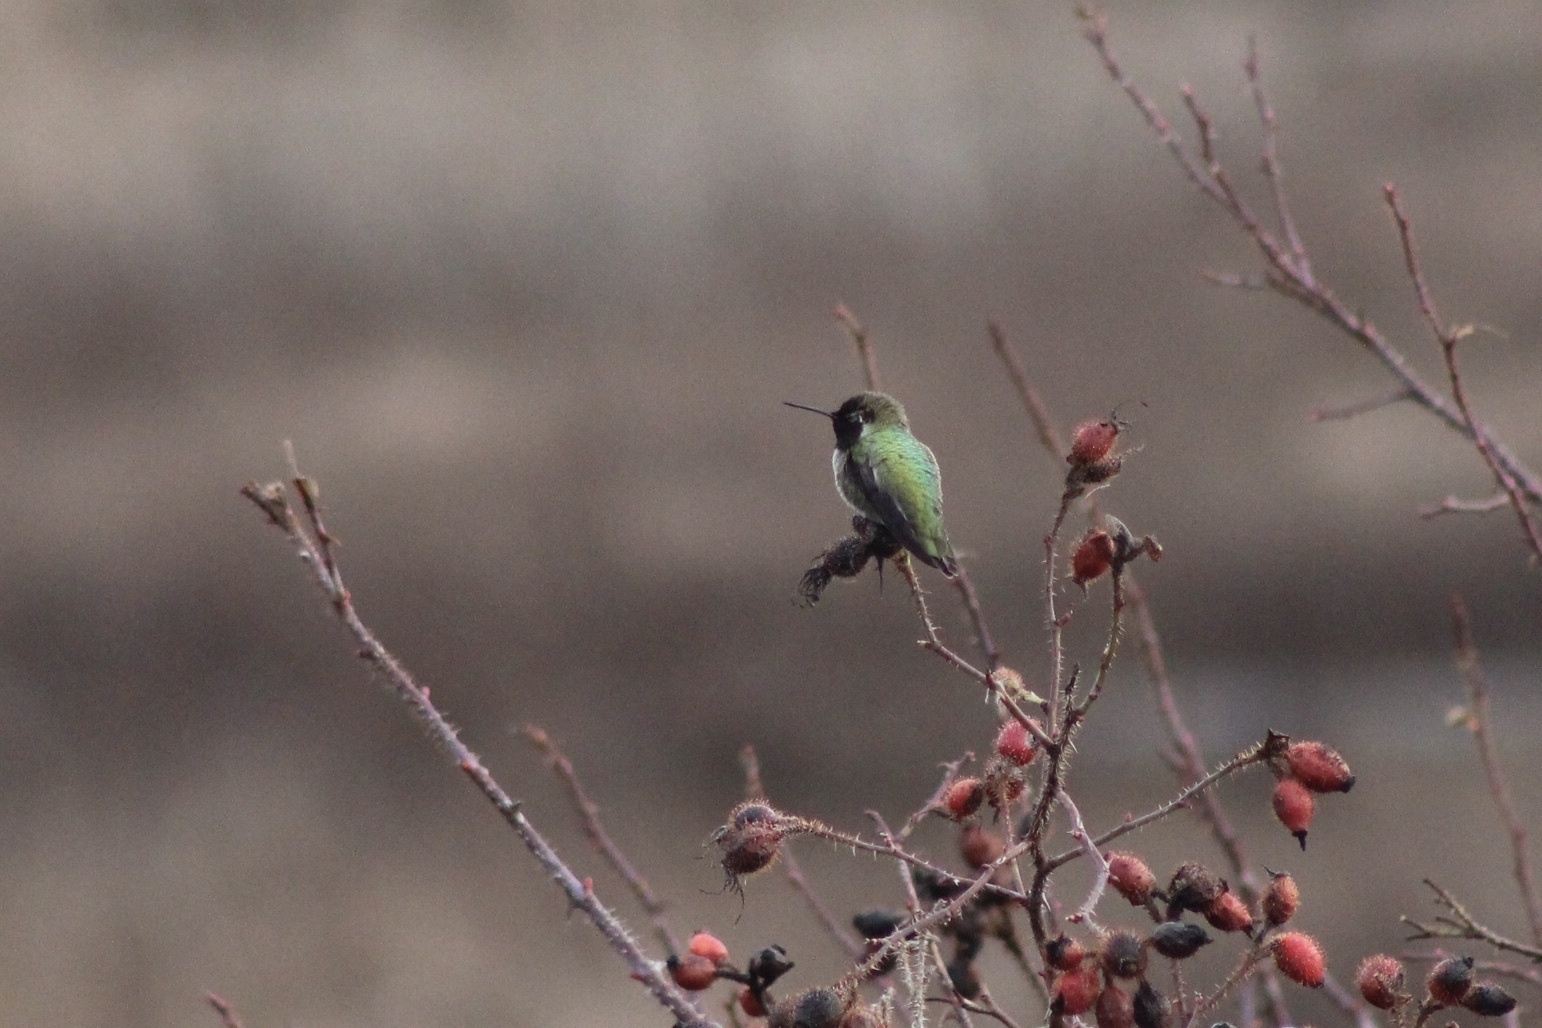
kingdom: Animalia
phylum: Chordata
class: Aves
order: Apodiformes
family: Trochilidae
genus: Calypte
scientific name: Calypte anna
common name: Anna's hummingbird
